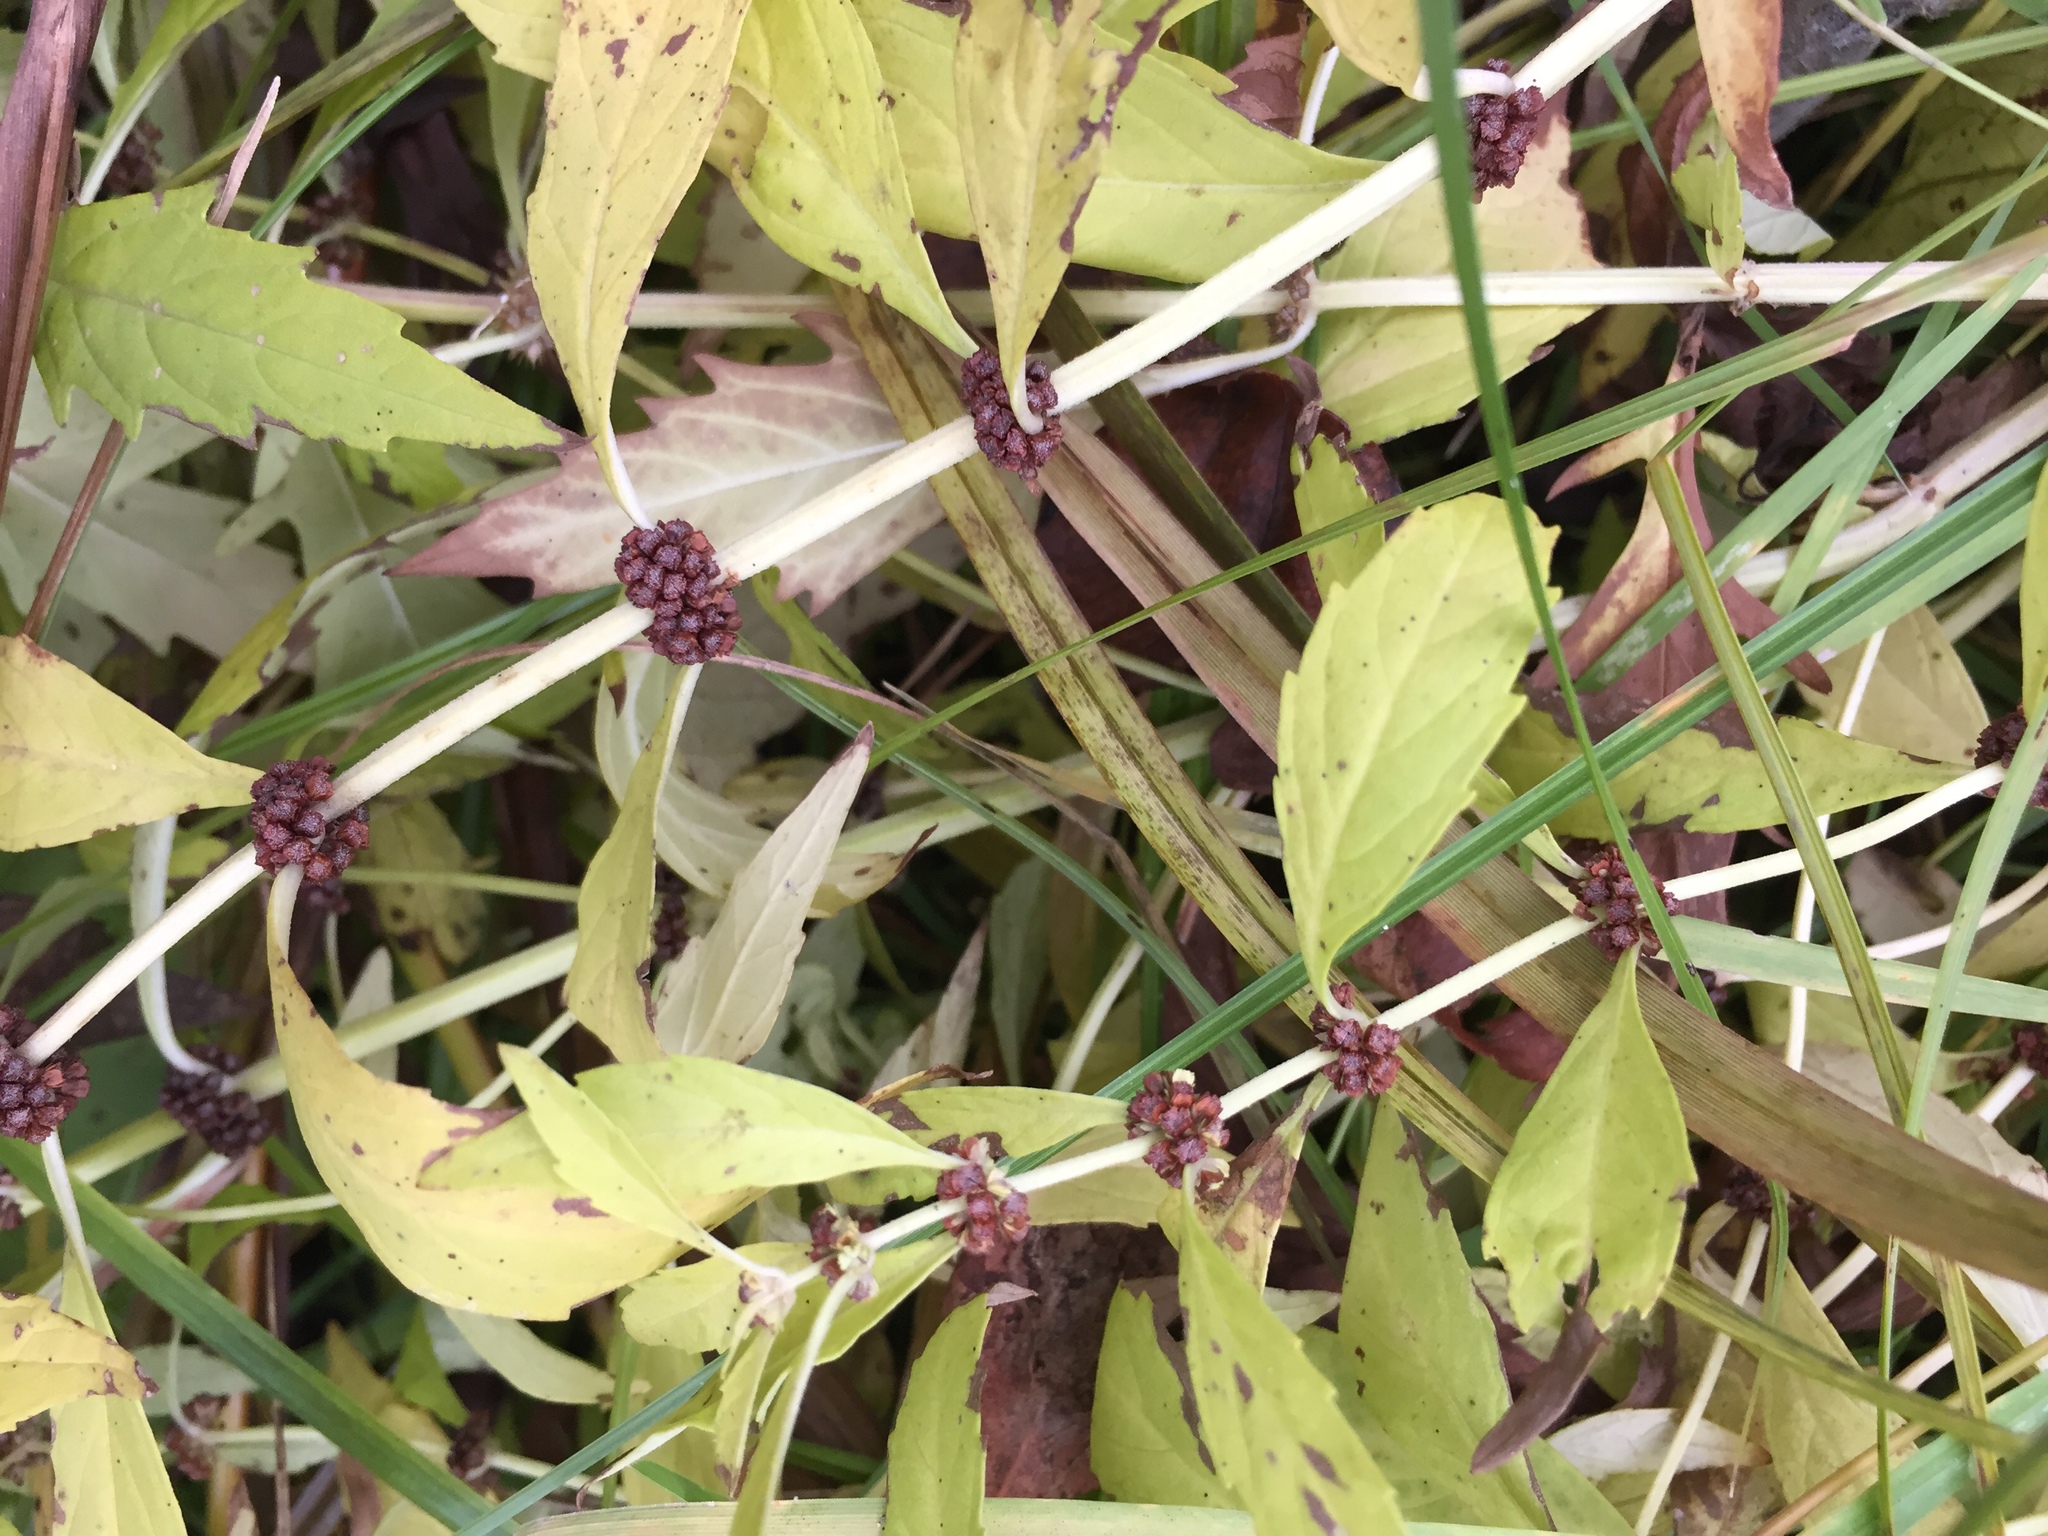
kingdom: Plantae
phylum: Tracheophyta
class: Magnoliopsida
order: Lamiales
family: Lamiaceae
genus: Lycopus
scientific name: Lycopus uniflorus
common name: Northern bugleweed
